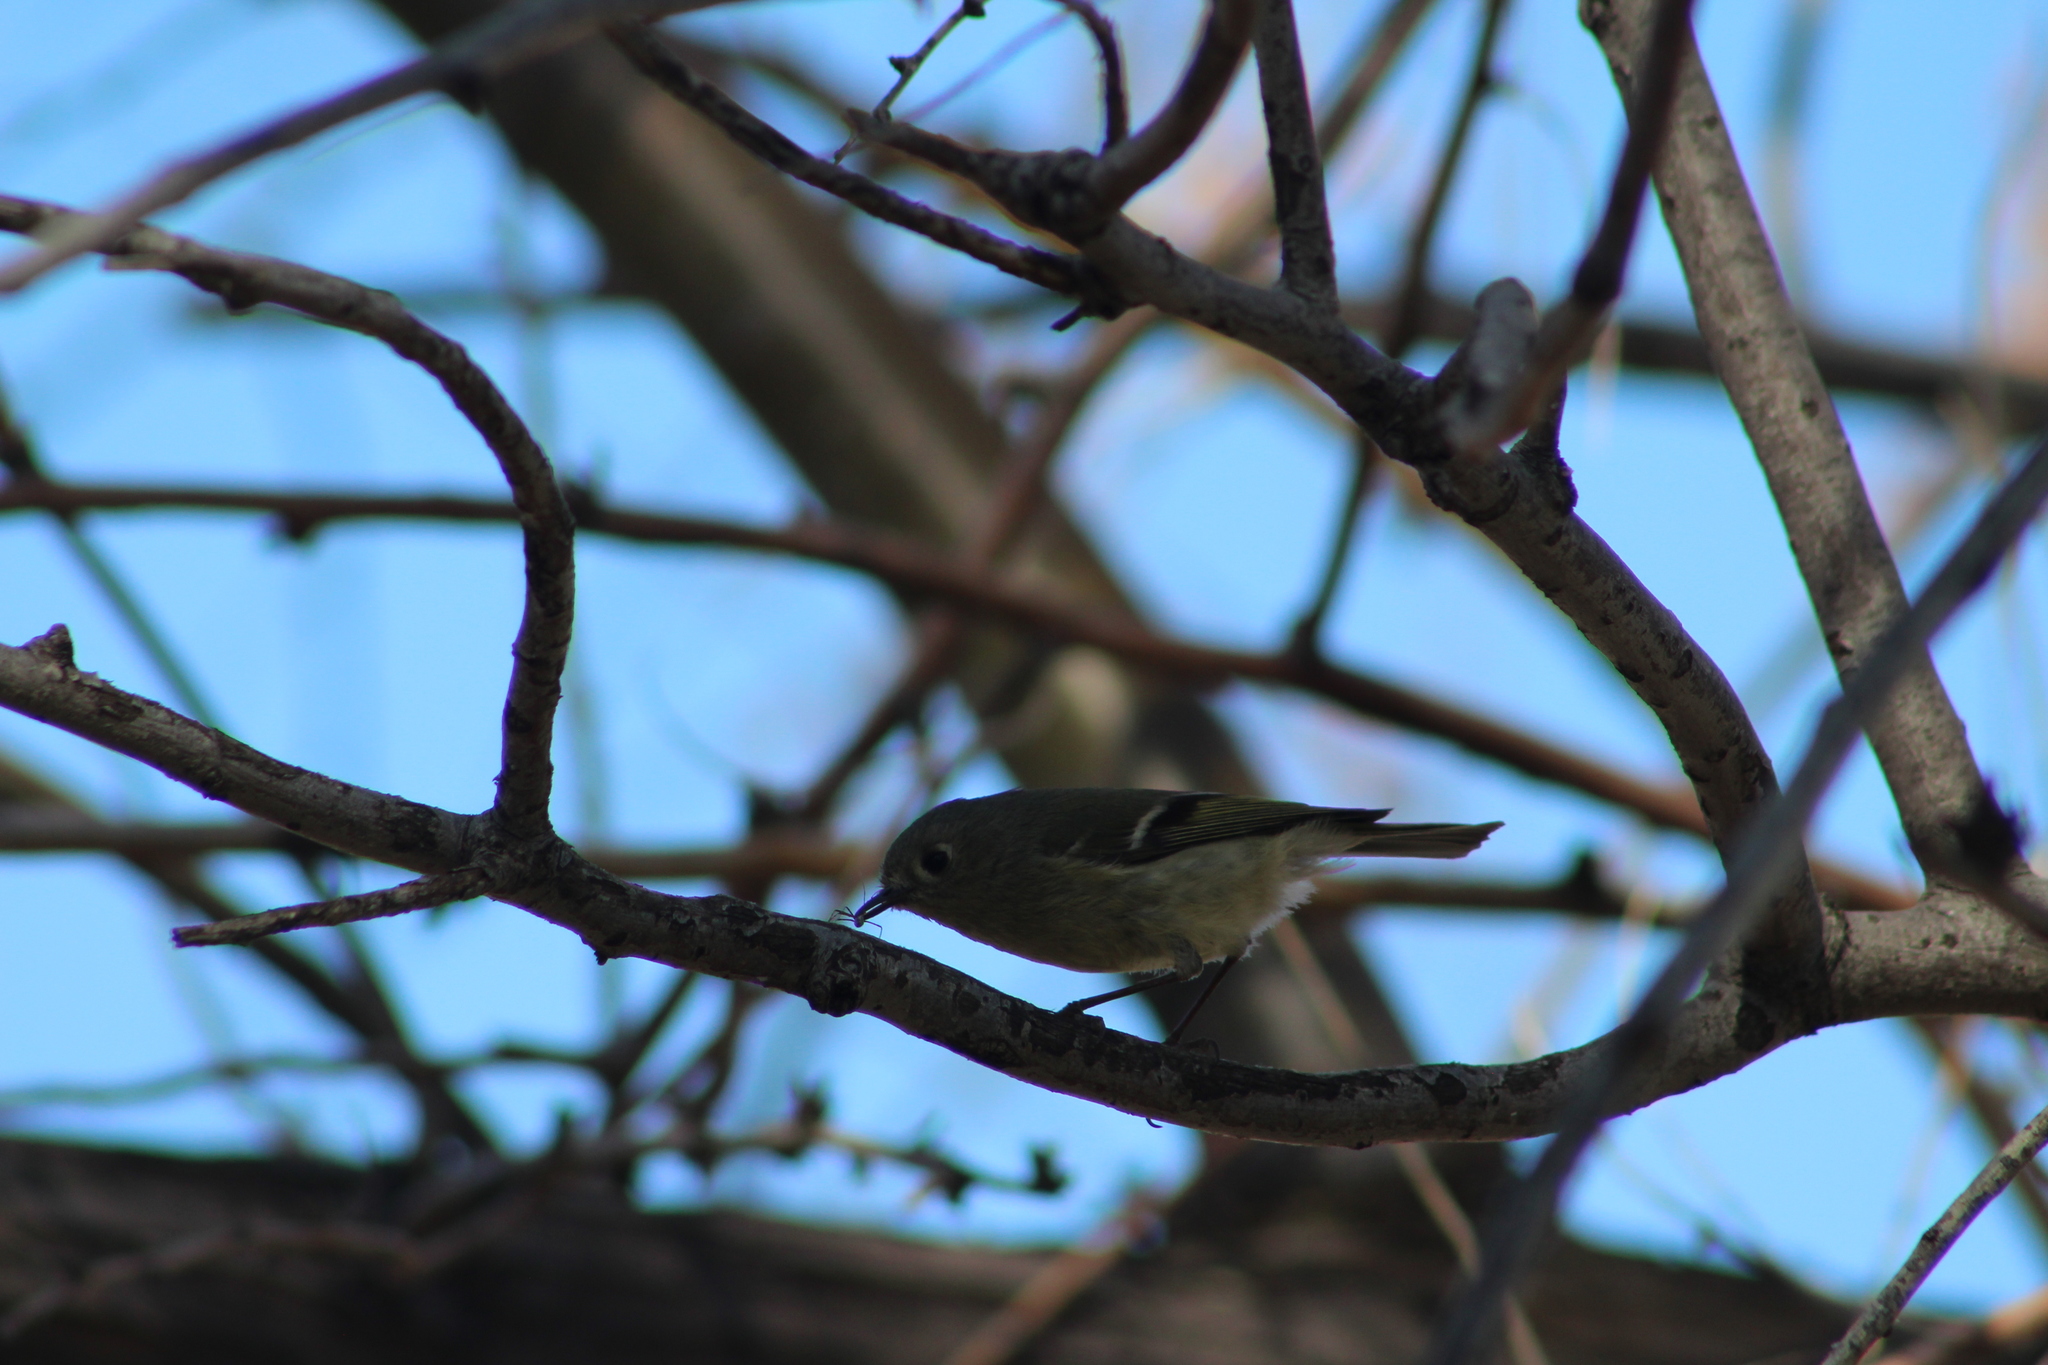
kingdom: Animalia
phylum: Chordata
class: Aves
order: Passeriformes
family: Regulidae
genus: Regulus
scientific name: Regulus calendula
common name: Ruby-crowned kinglet
